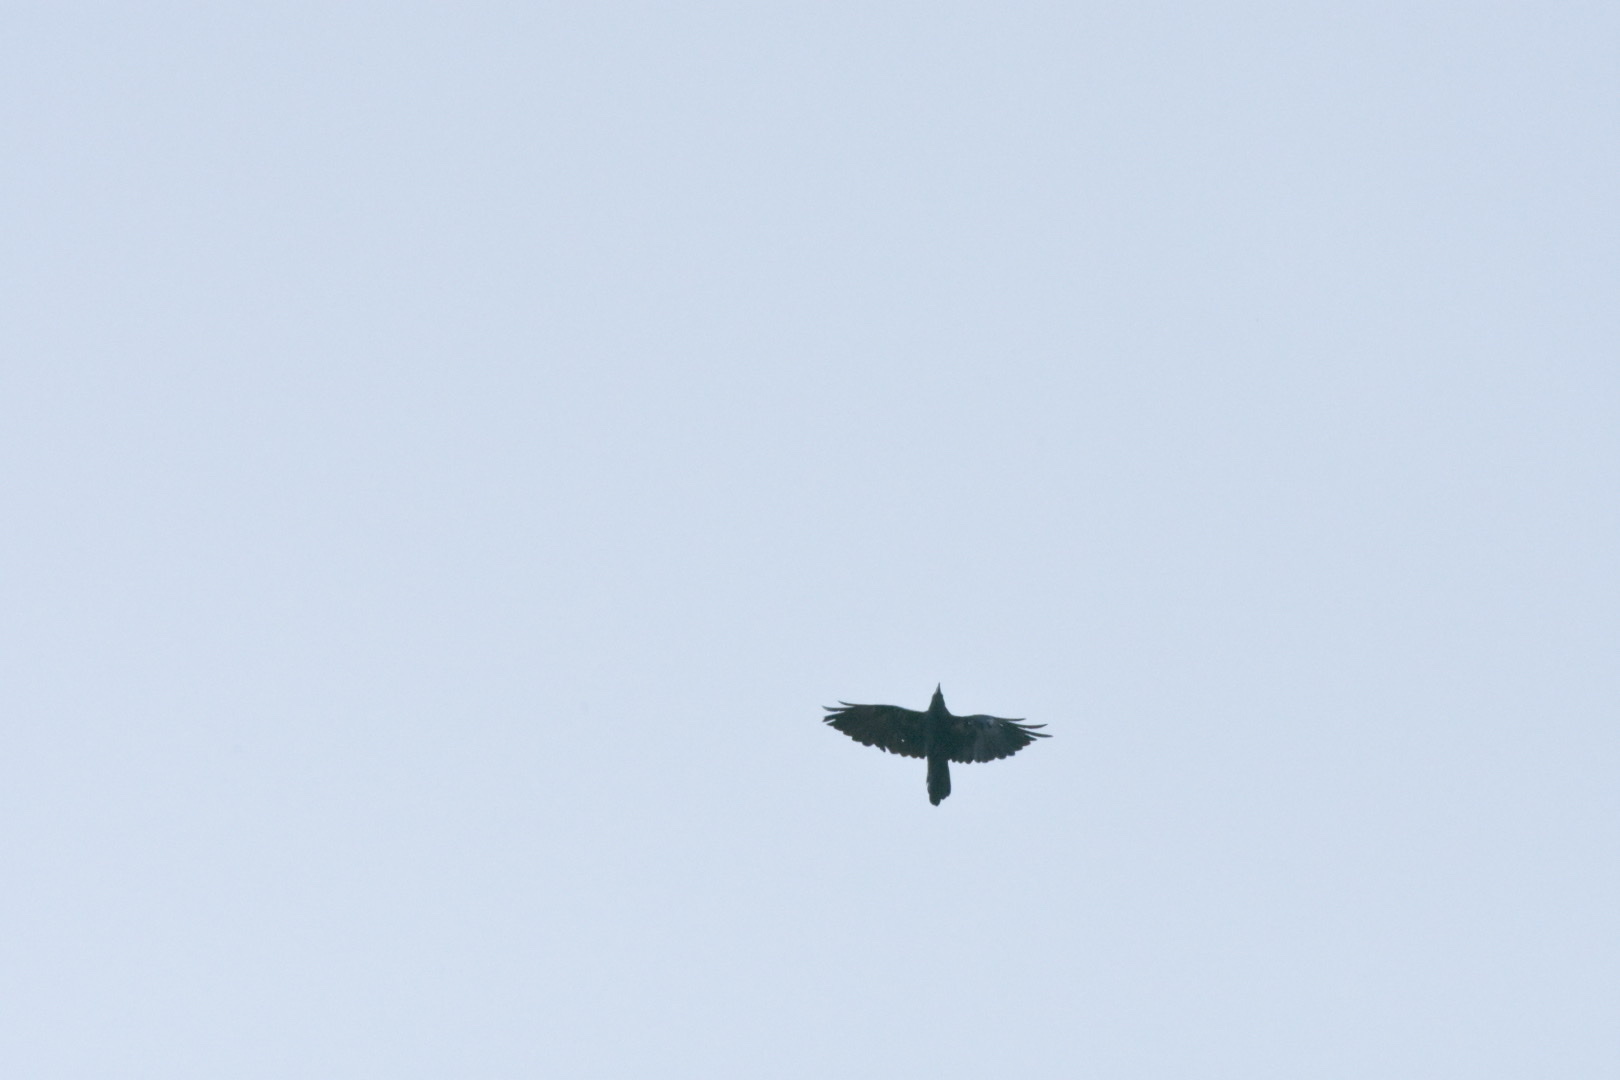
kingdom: Animalia
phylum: Chordata
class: Aves
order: Passeriformes
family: Corvidae
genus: Corvus
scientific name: Corvus corax
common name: Common raven
